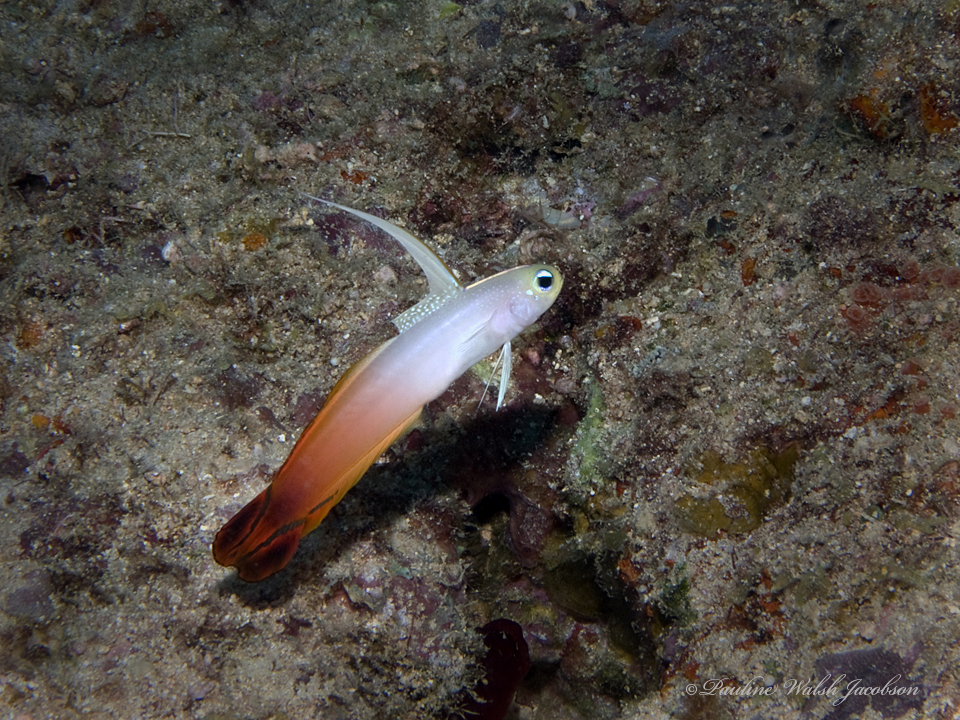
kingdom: Animalia
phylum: Chordata
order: Perciformes
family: Microdesmidae
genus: Nemateleotris
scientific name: Nemateleotris magnifica
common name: Fire goby
